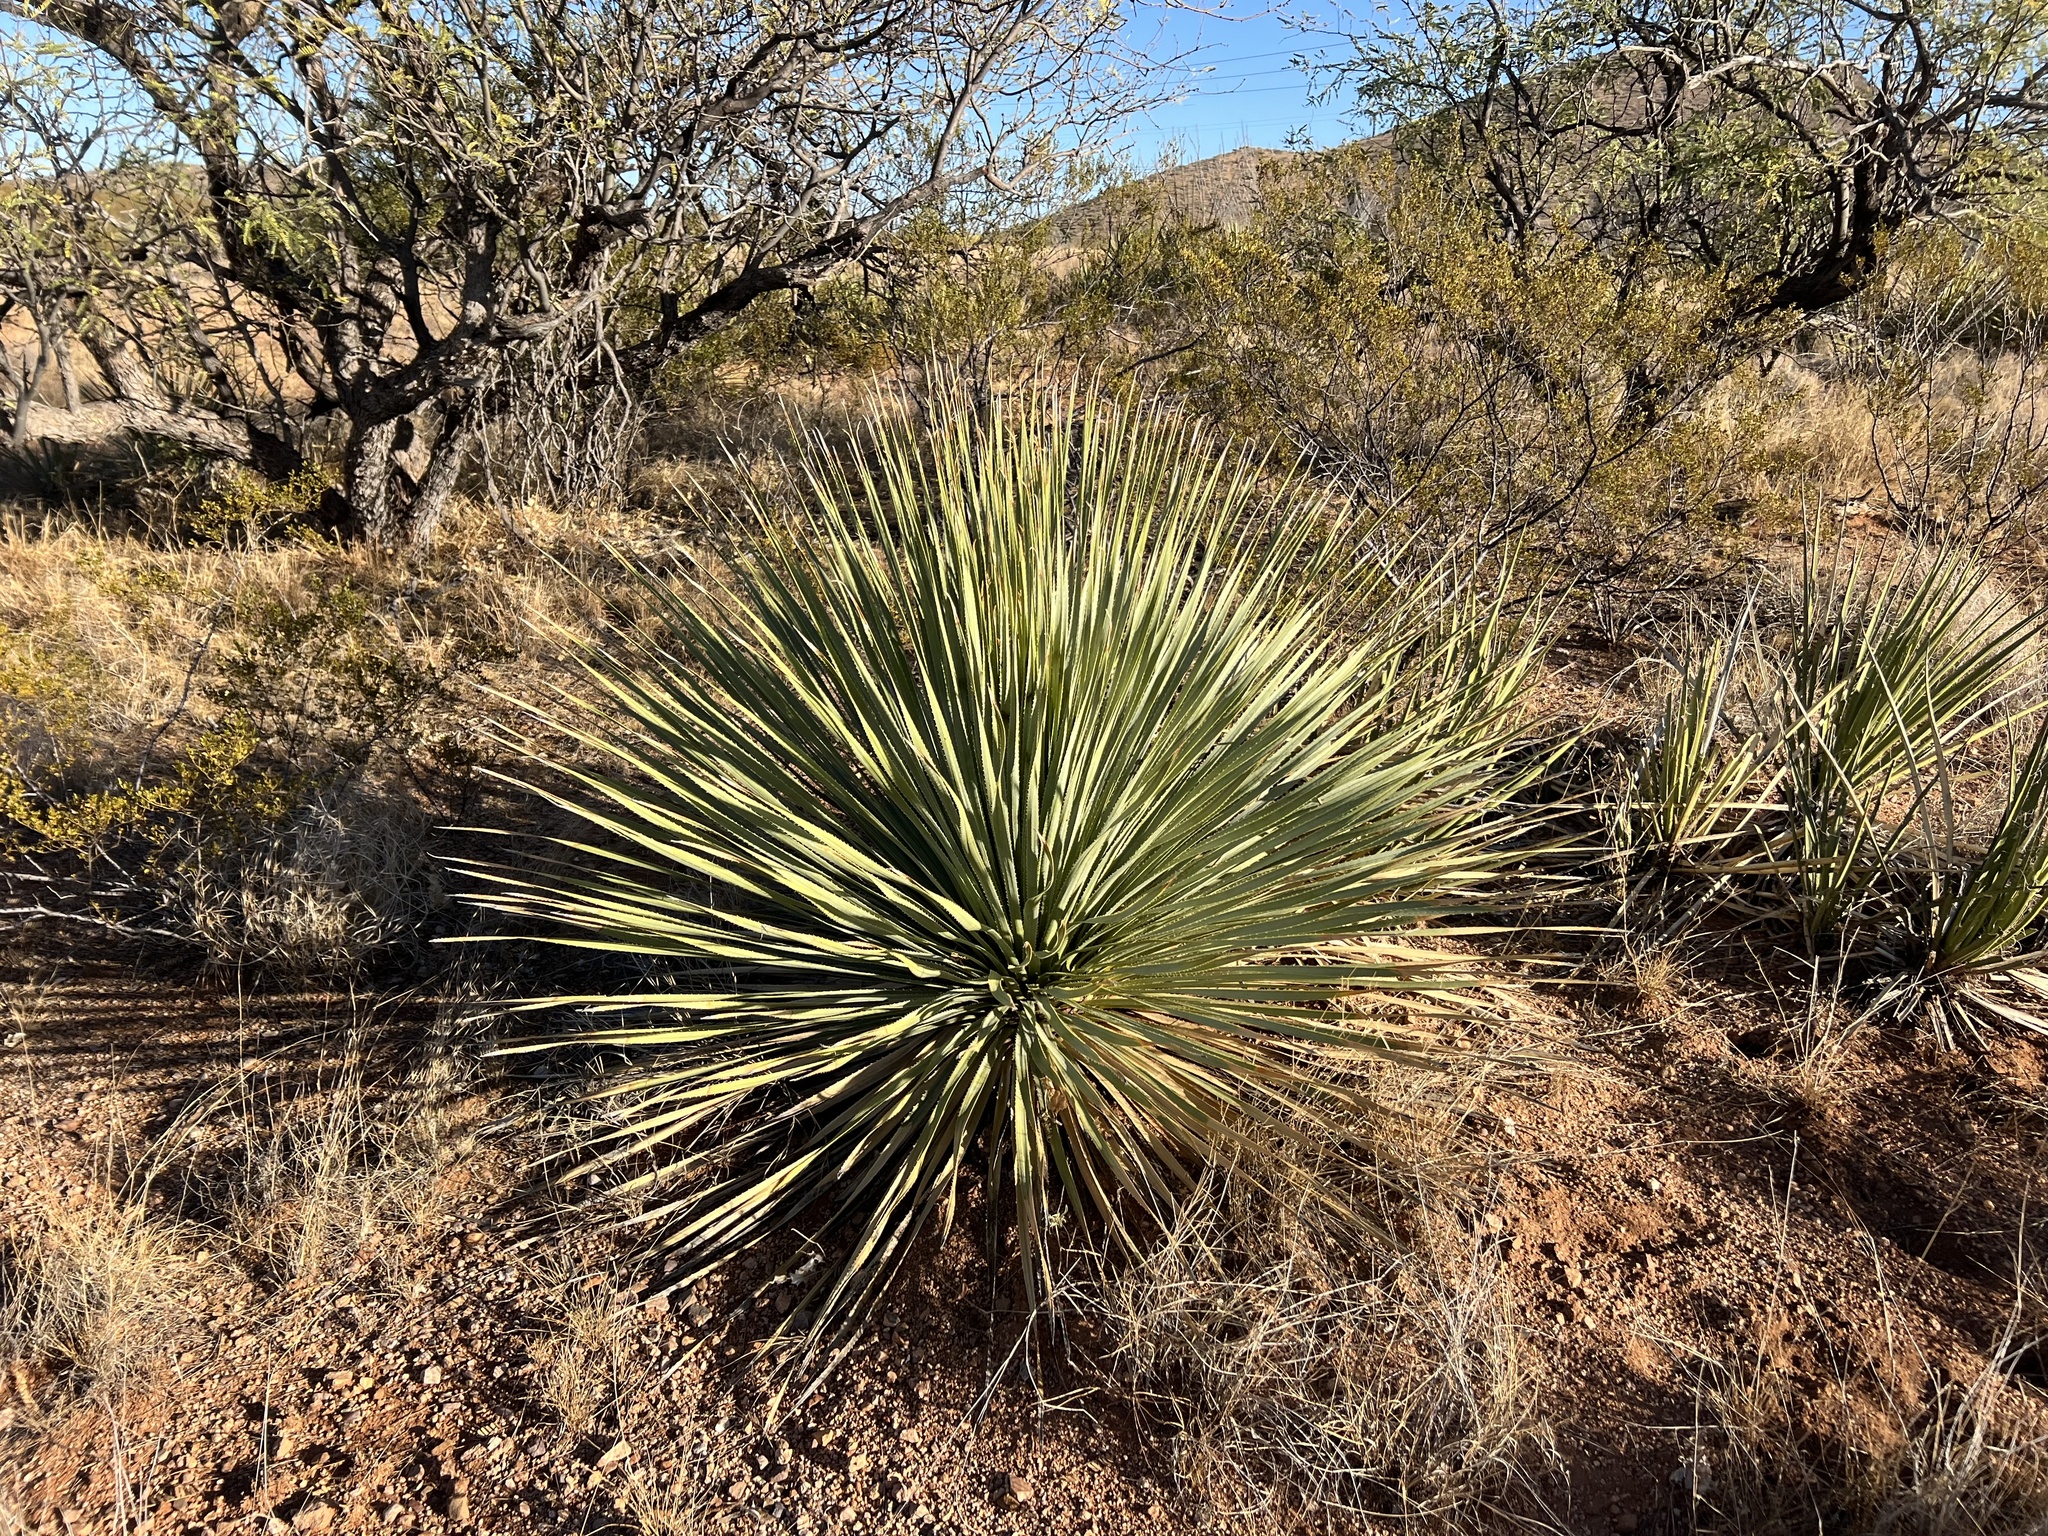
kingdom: Plantae
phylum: Tracheophyta
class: Liliopsida
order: Asparagales
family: Asparagaceae
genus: Dasylirion
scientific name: Dasylirion wheeleri
